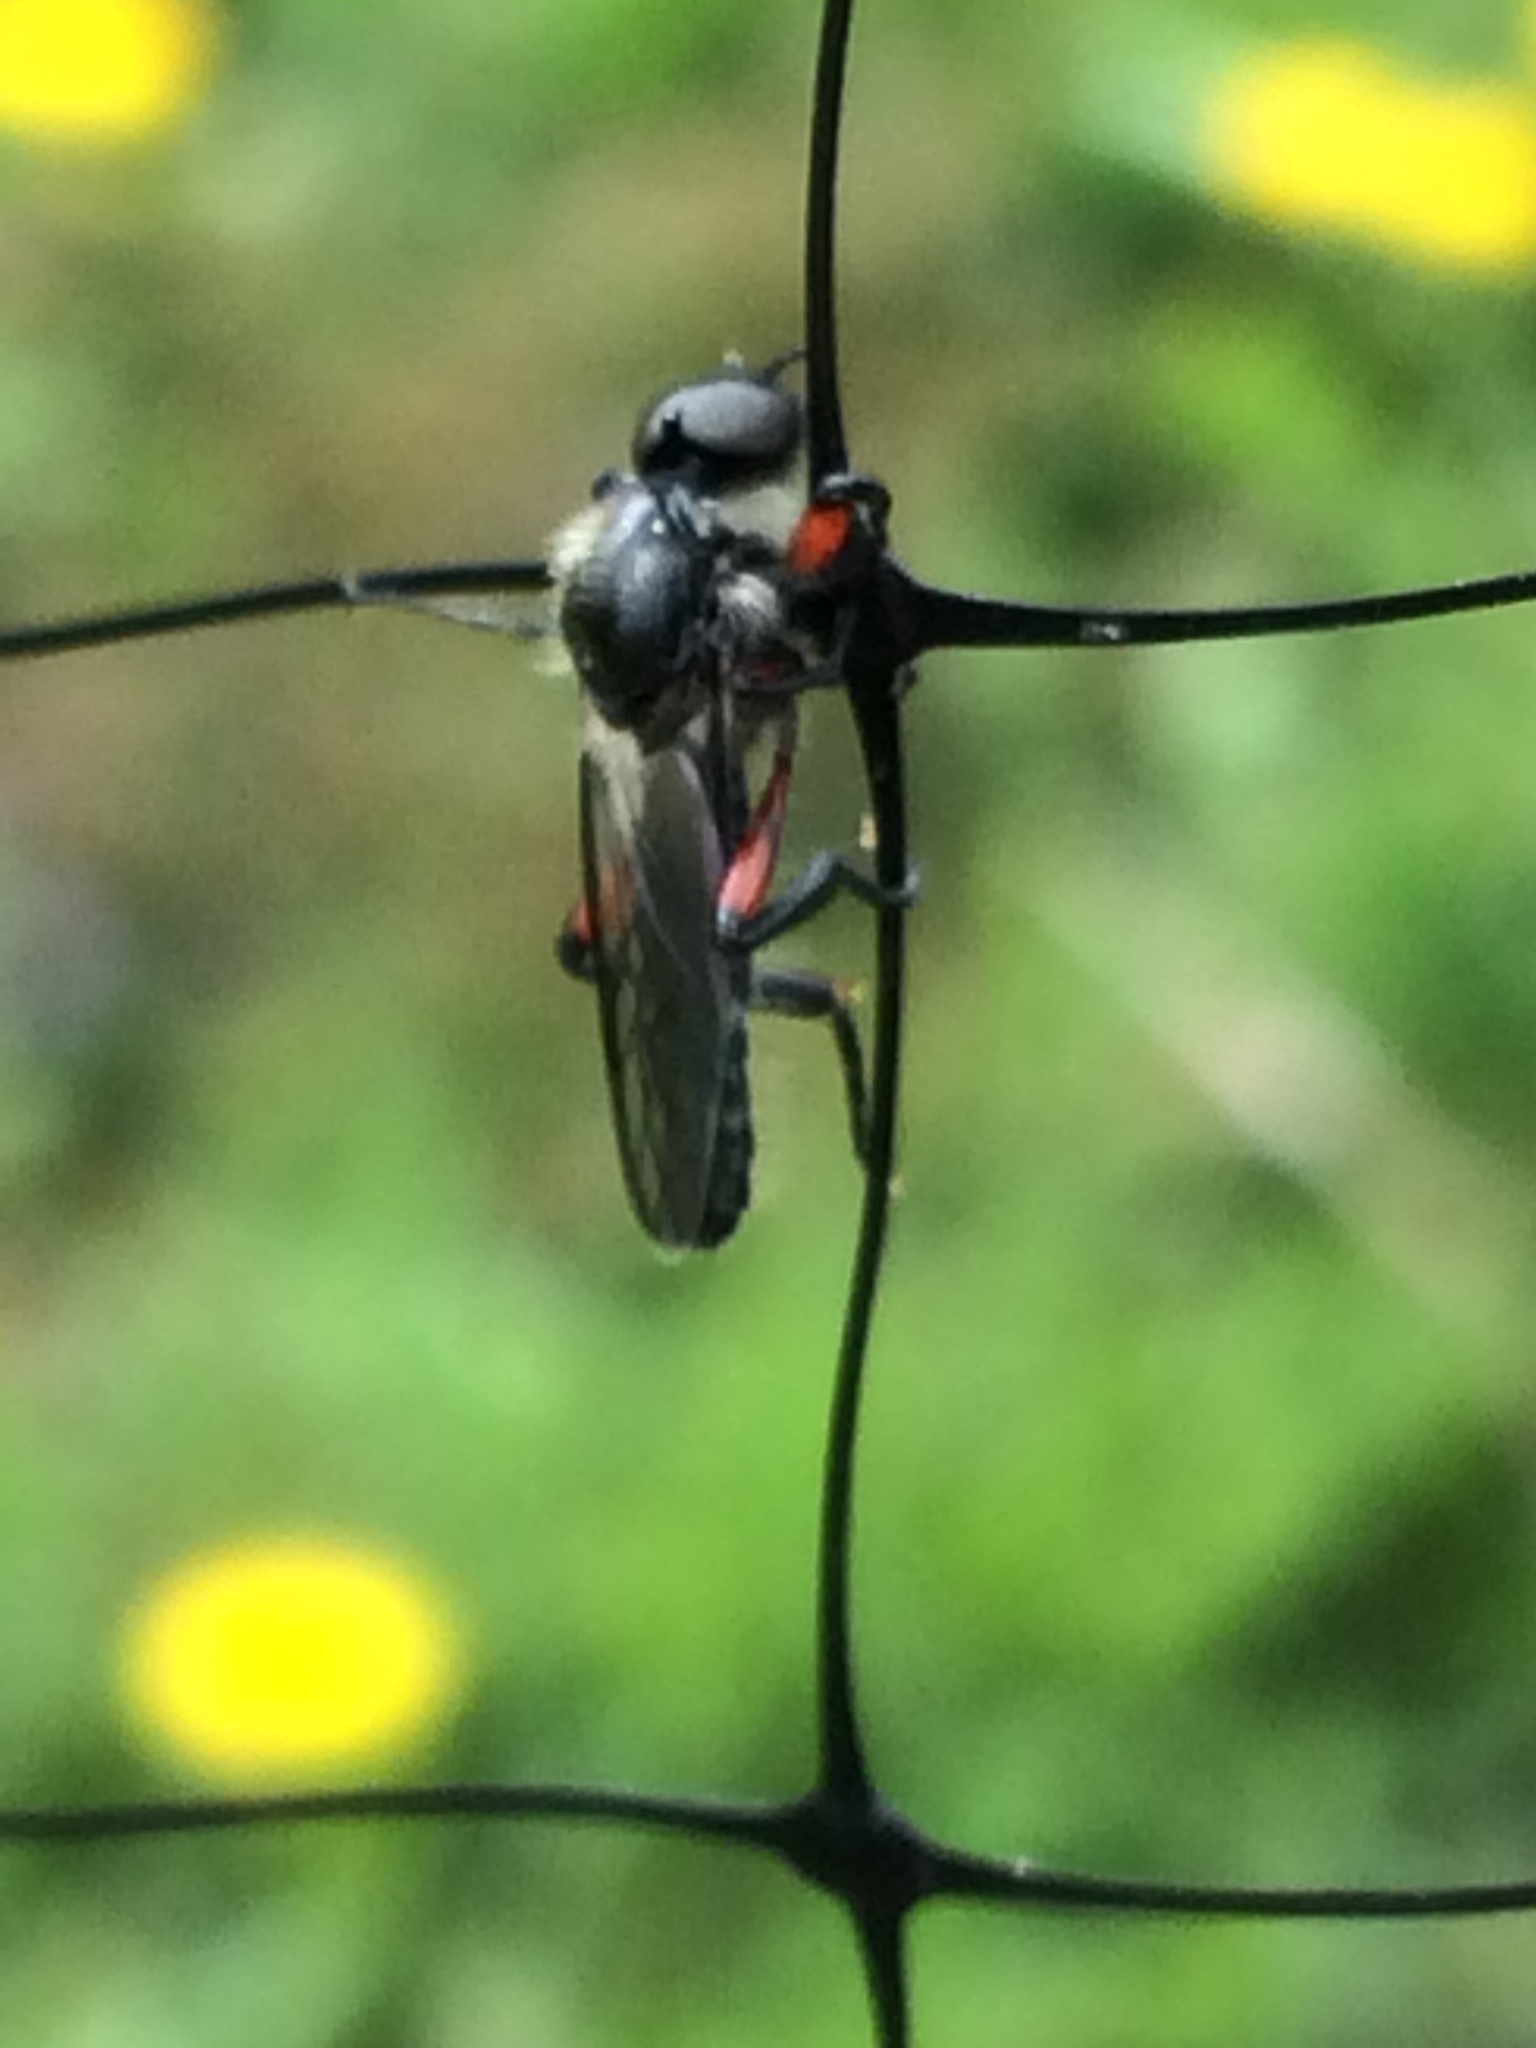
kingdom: Animalia
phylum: Arthropoda
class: Insecta
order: Diptera
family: Bibionidae
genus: Bibio
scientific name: Bibio femoratus
